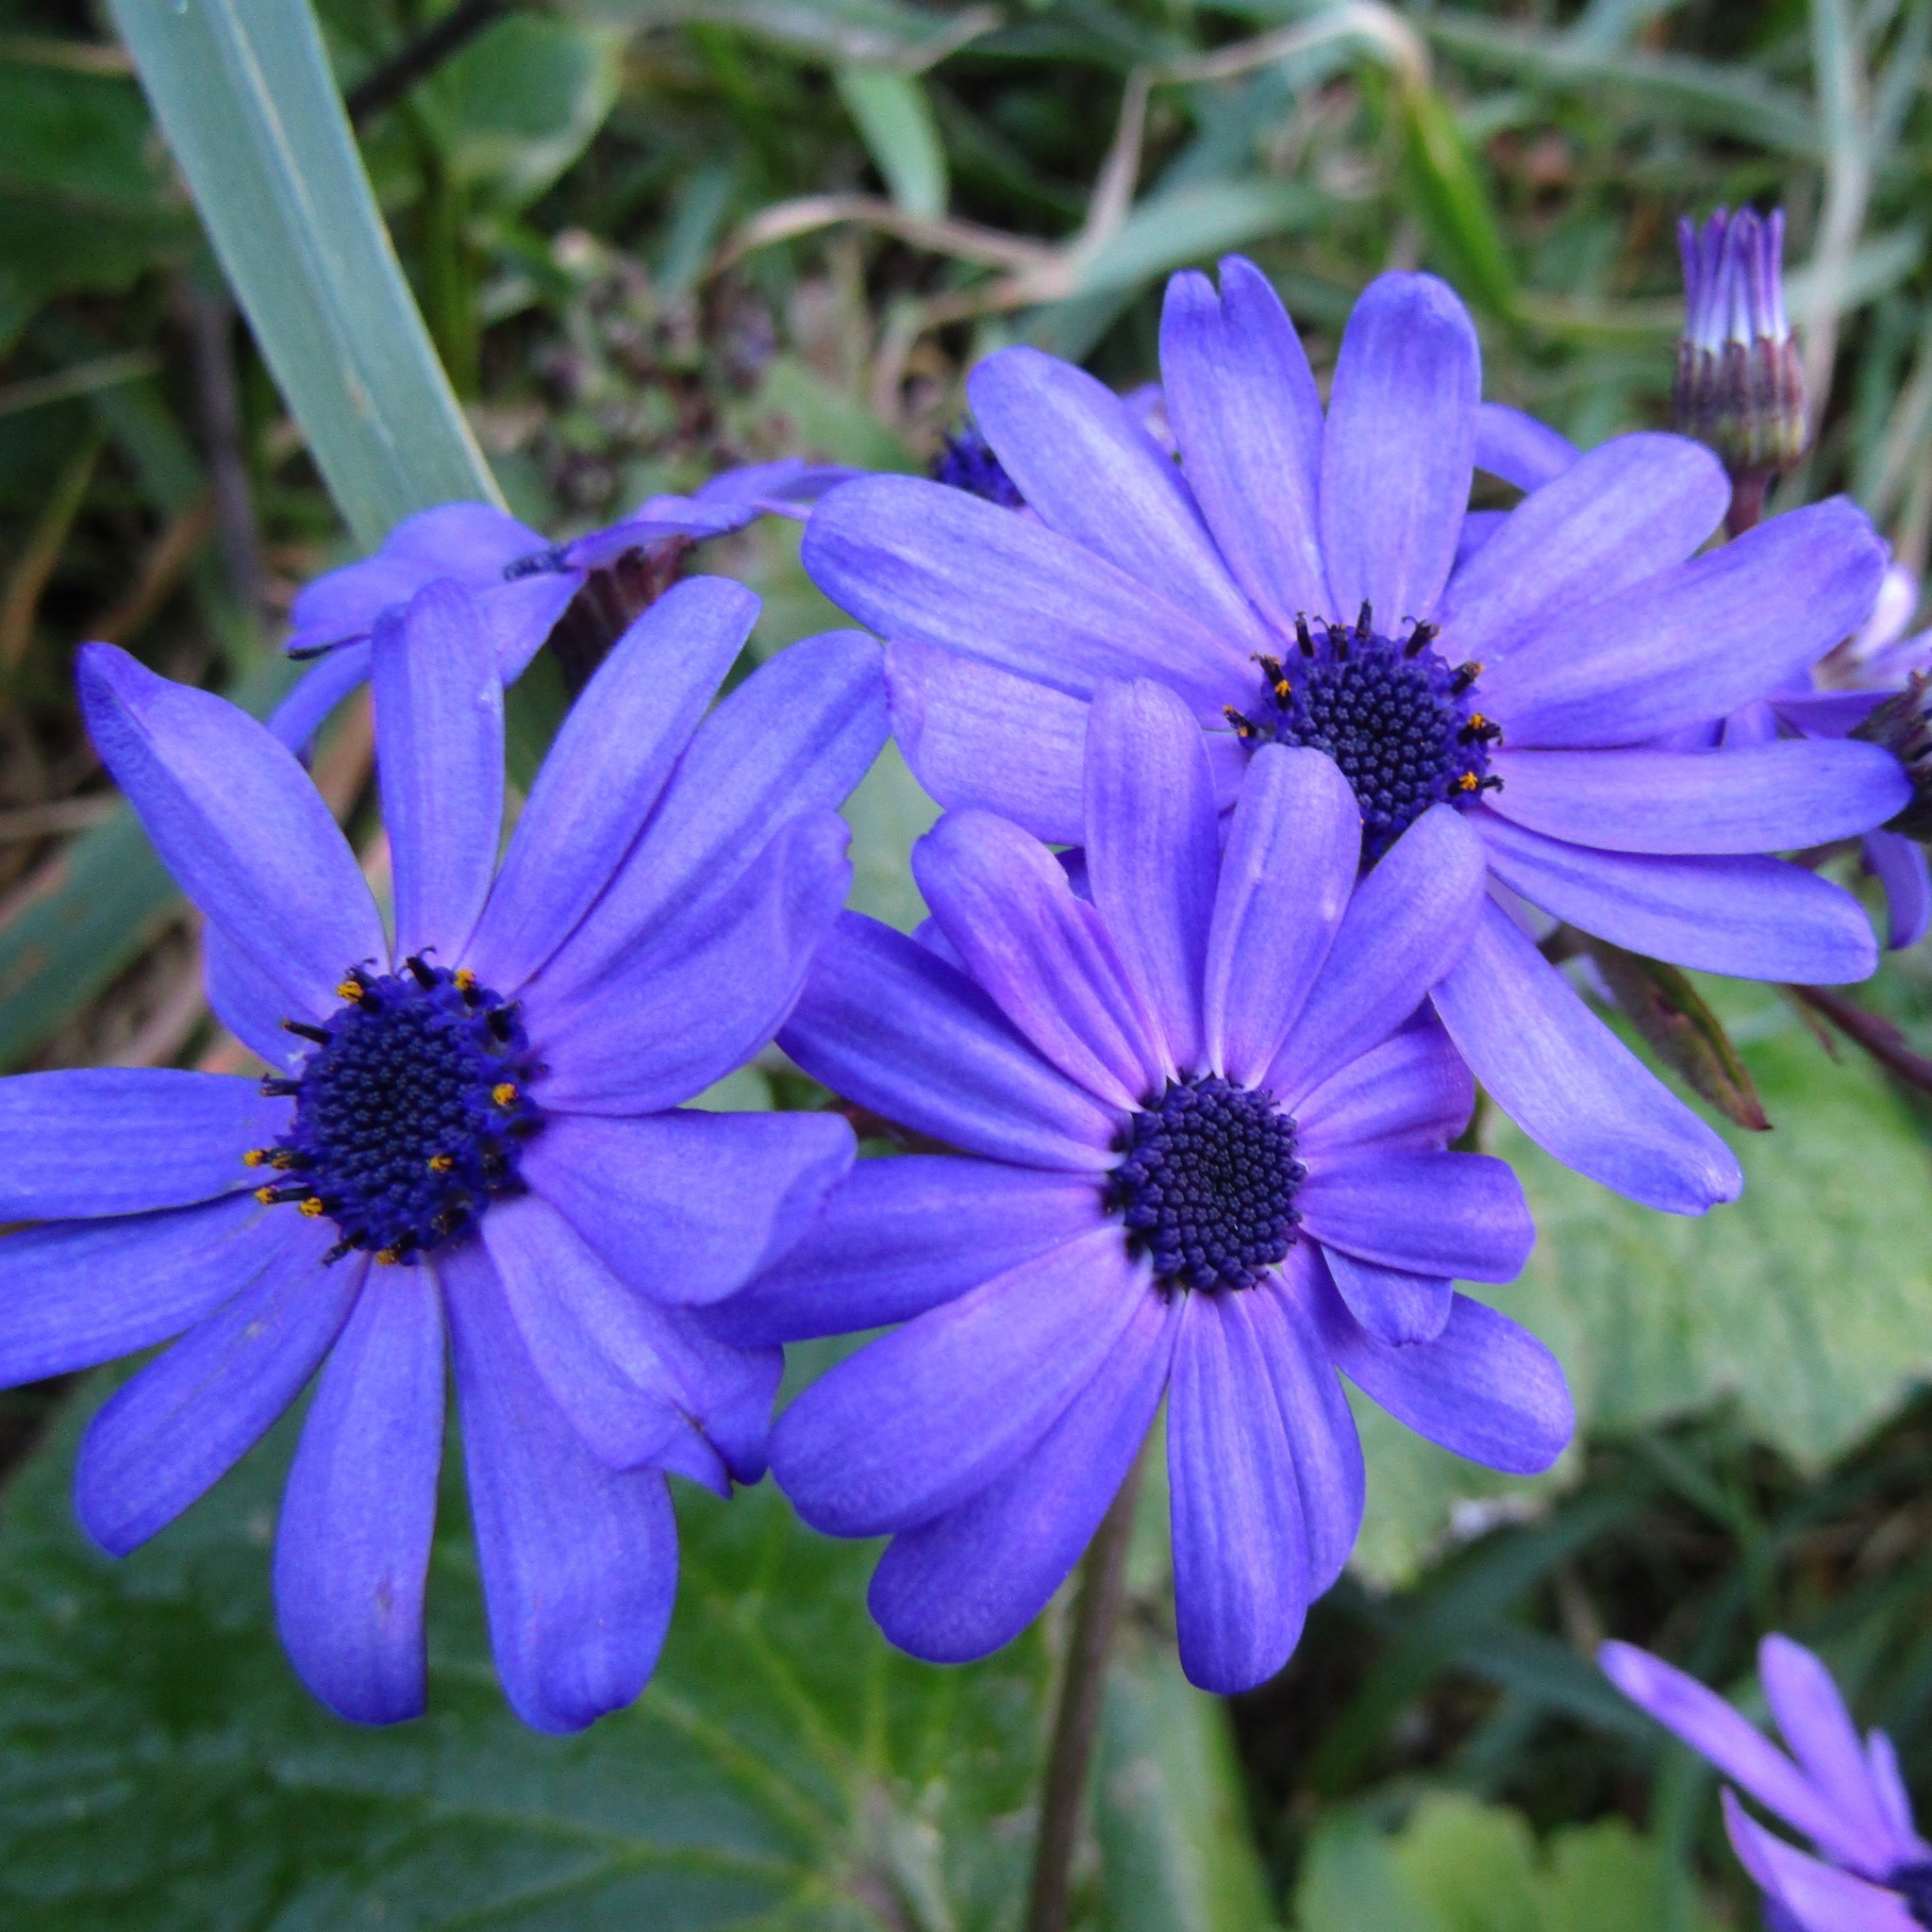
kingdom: Plantae
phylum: Tracheophyta
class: Magnoliopsida
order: Asterales
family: Asteraceae
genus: Pericallis
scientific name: Pericallis hybrida
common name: Cineraria
